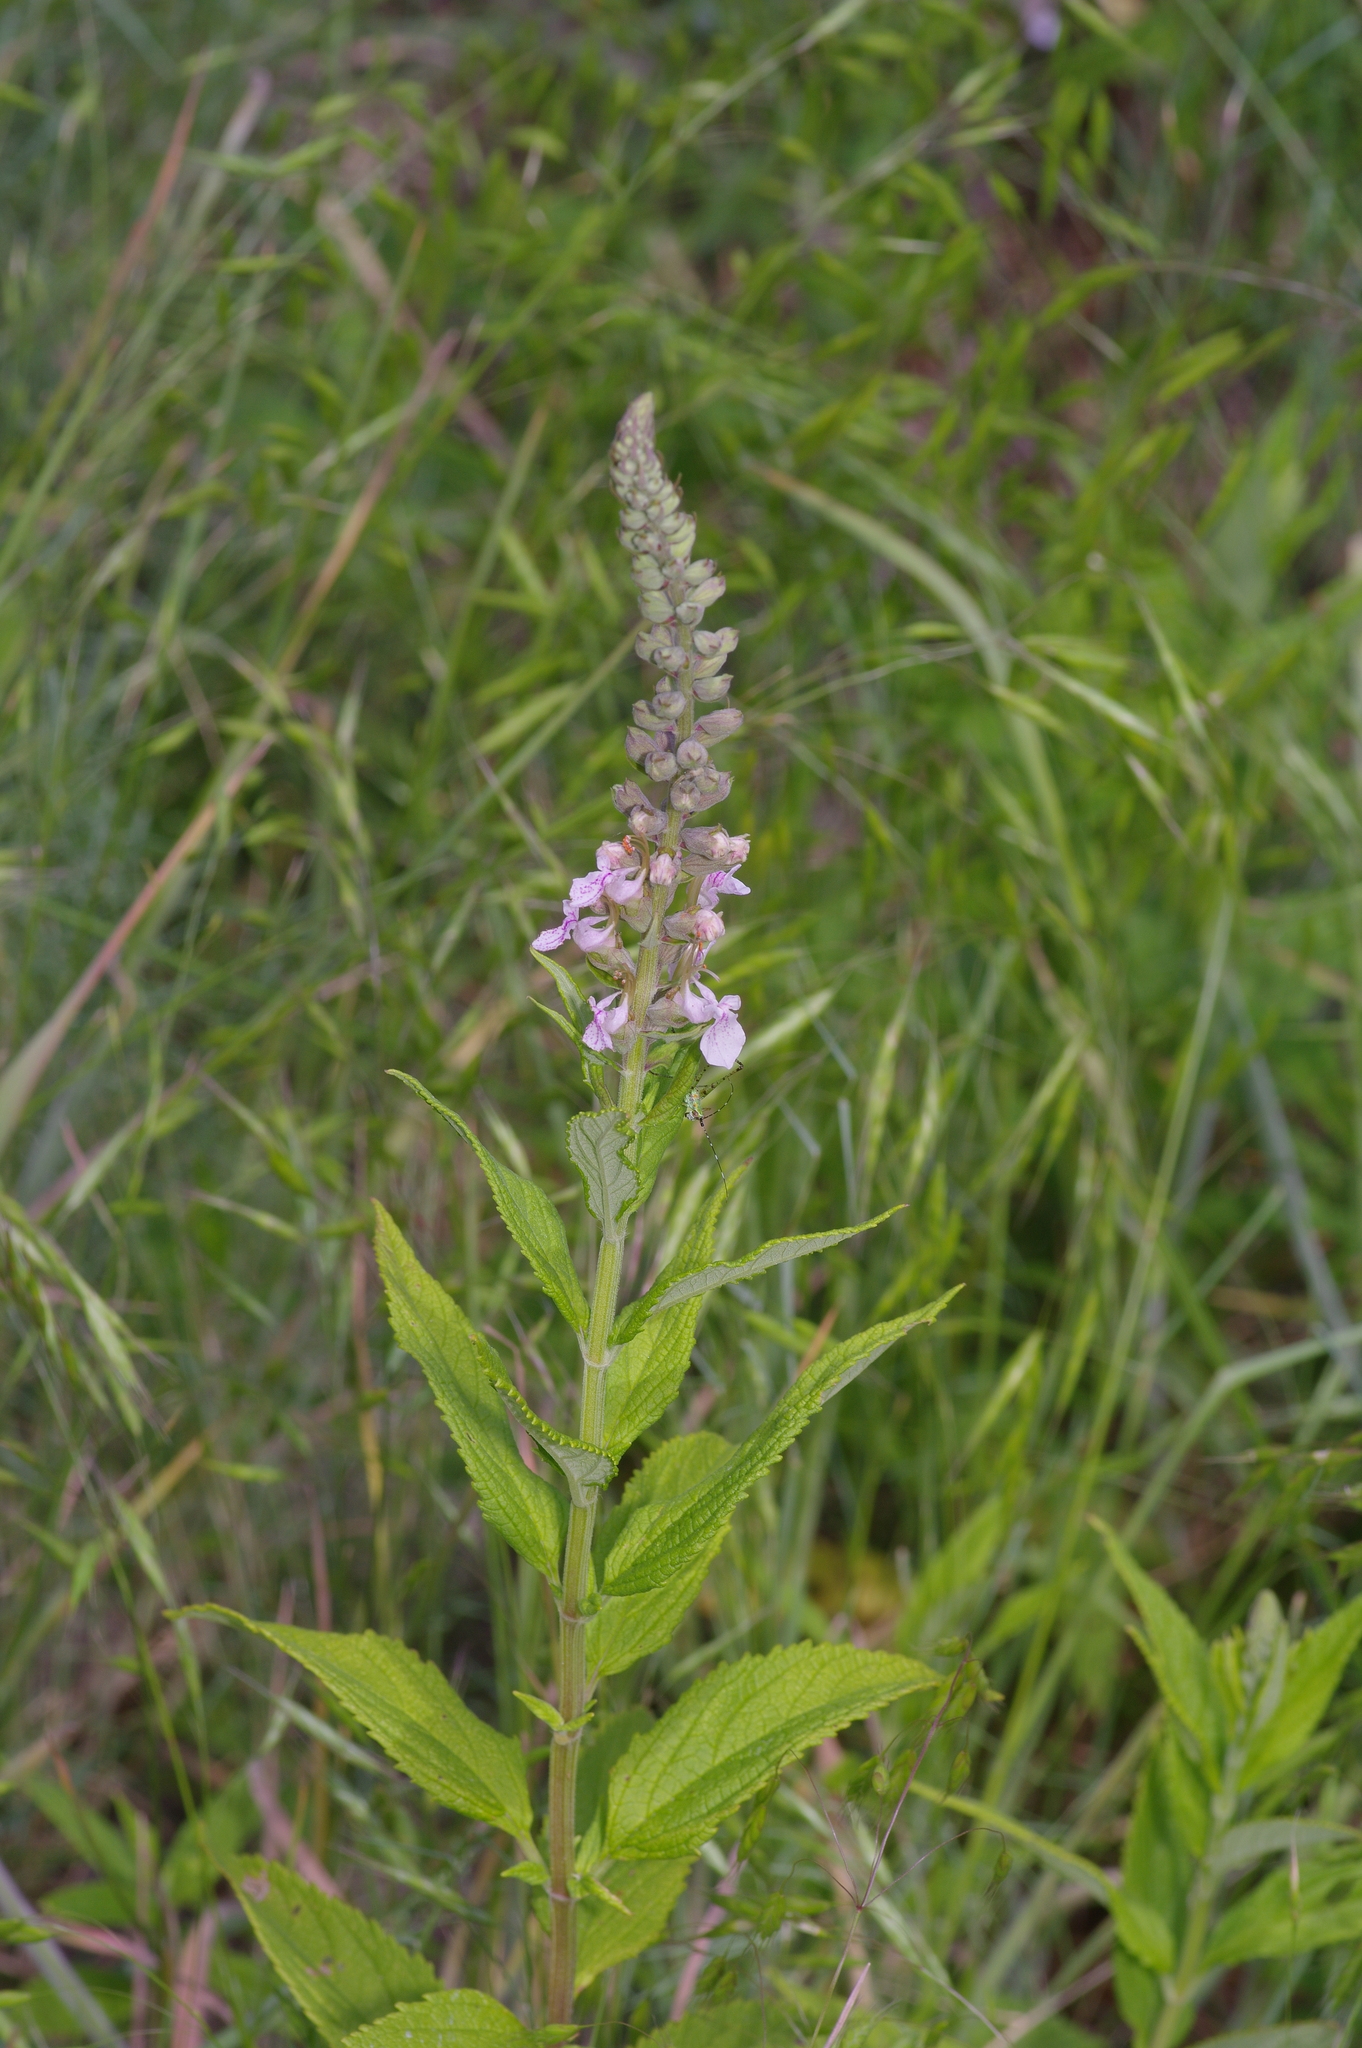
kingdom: Plantae
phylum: Tracheophyta
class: Magnoliopsida
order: Lamiales
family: Lamiaceae
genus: Teucrium
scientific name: Teucrium canadense
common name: American germander
